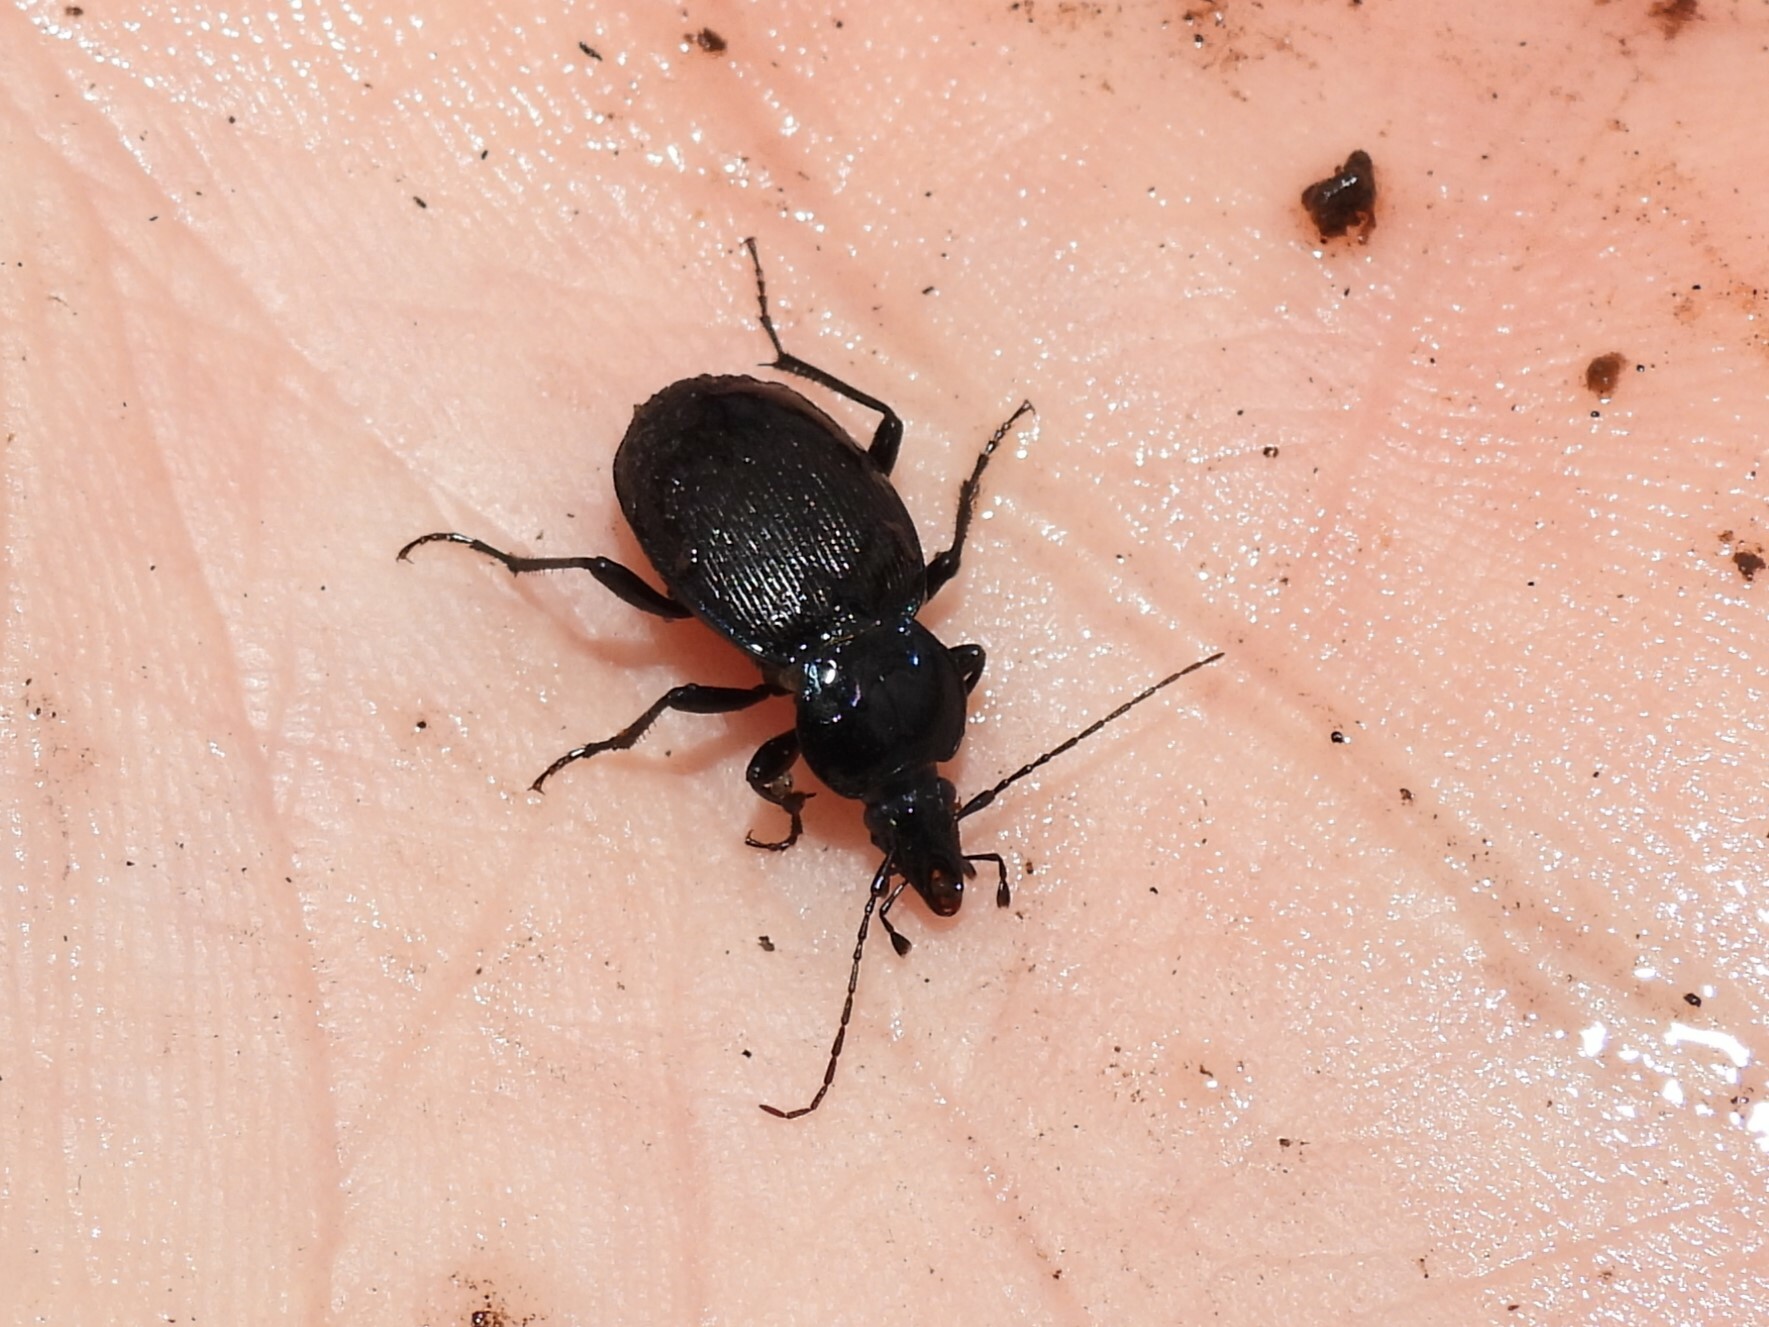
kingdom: Animalia
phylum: Arthropoda
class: Insecta
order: Coleoptera
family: Carabidae
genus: Sphaeroderus
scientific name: Sphaeroderus stenostomus
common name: Small snail-eating ground beetle
